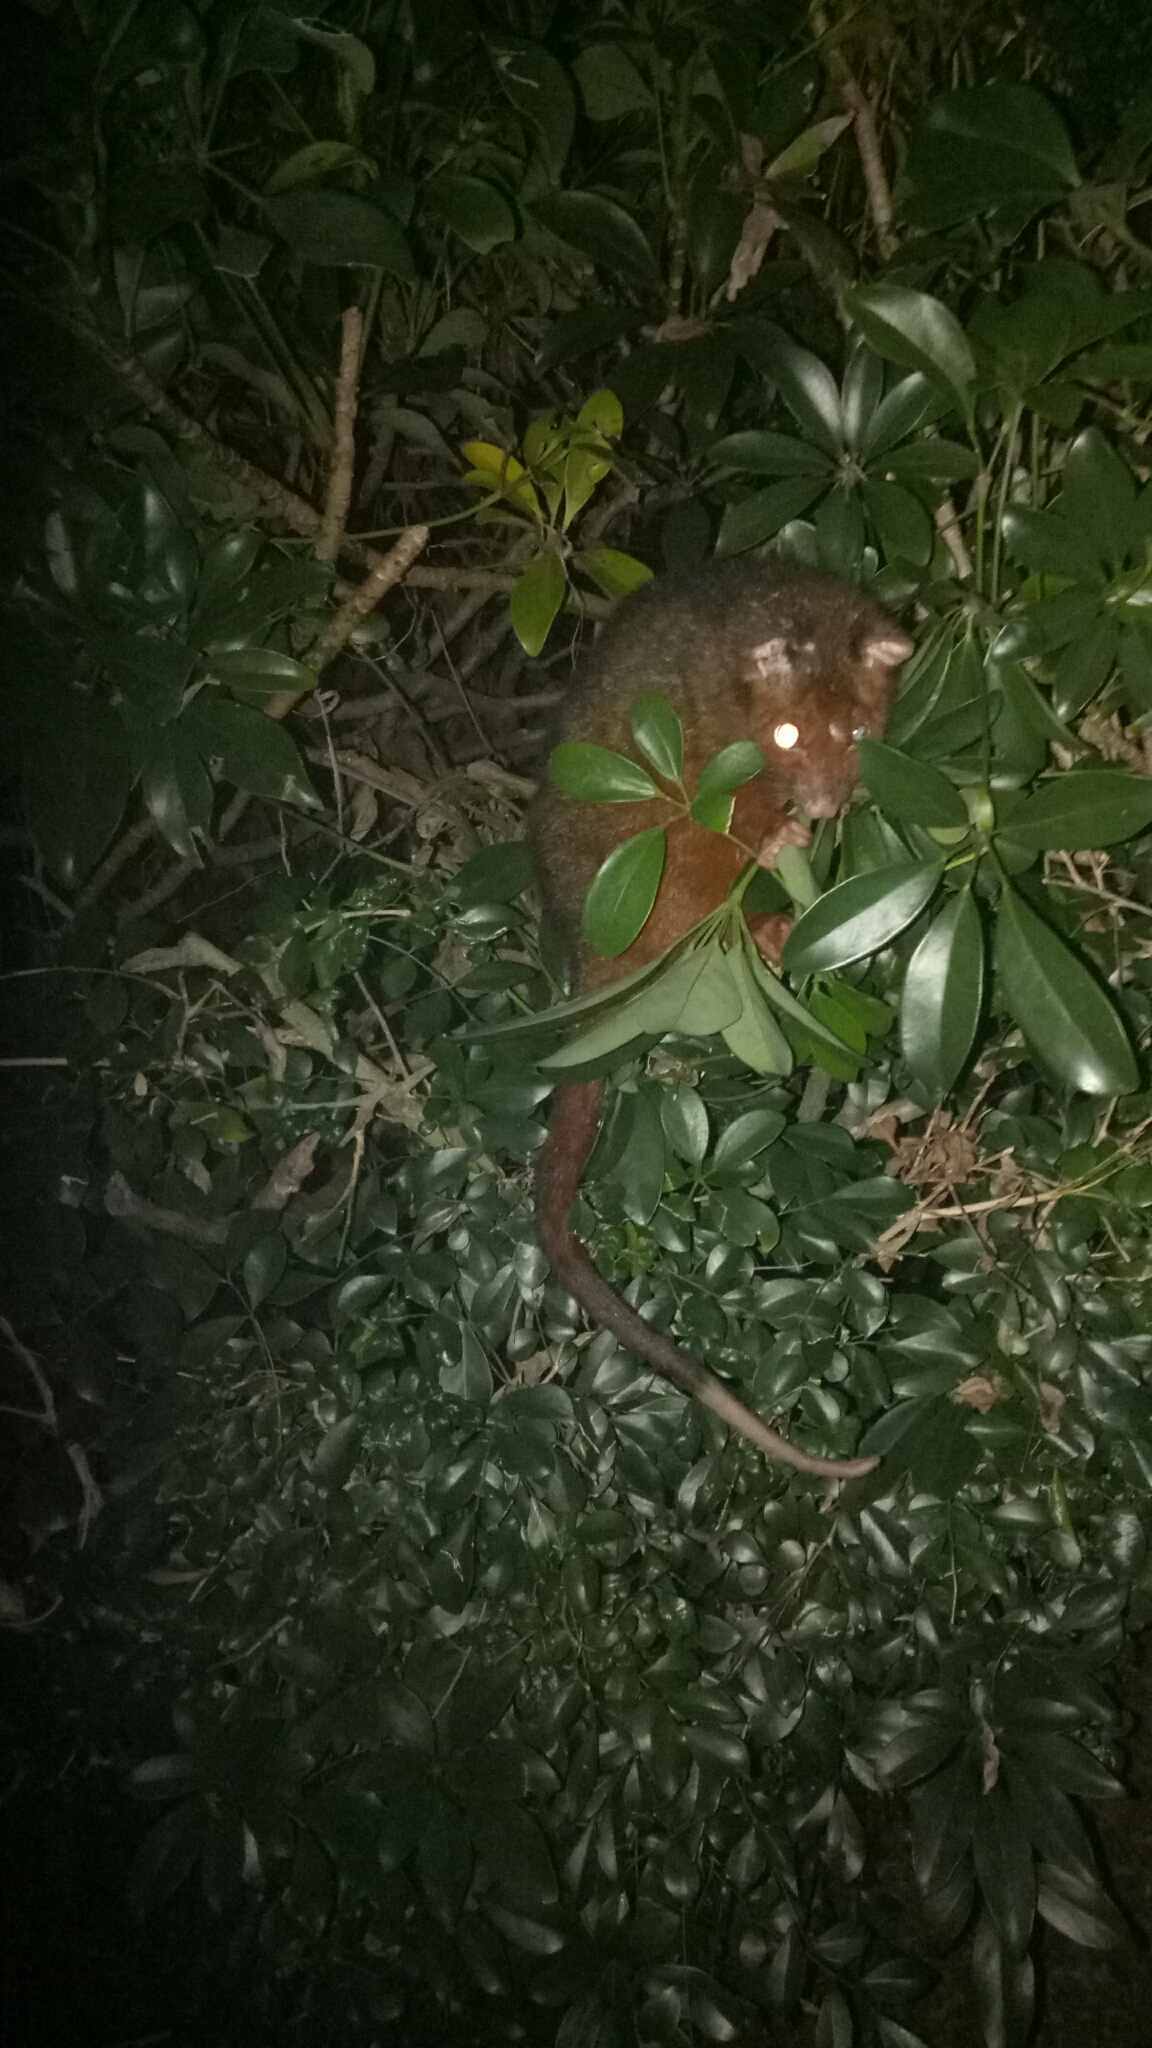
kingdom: Animalia
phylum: Chordata
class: Mammalia
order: Diprotodontia
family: Pseudocheiridae
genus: Pseudocheirus
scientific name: Pseudocheirus peregrinus
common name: Common ringtail possum
